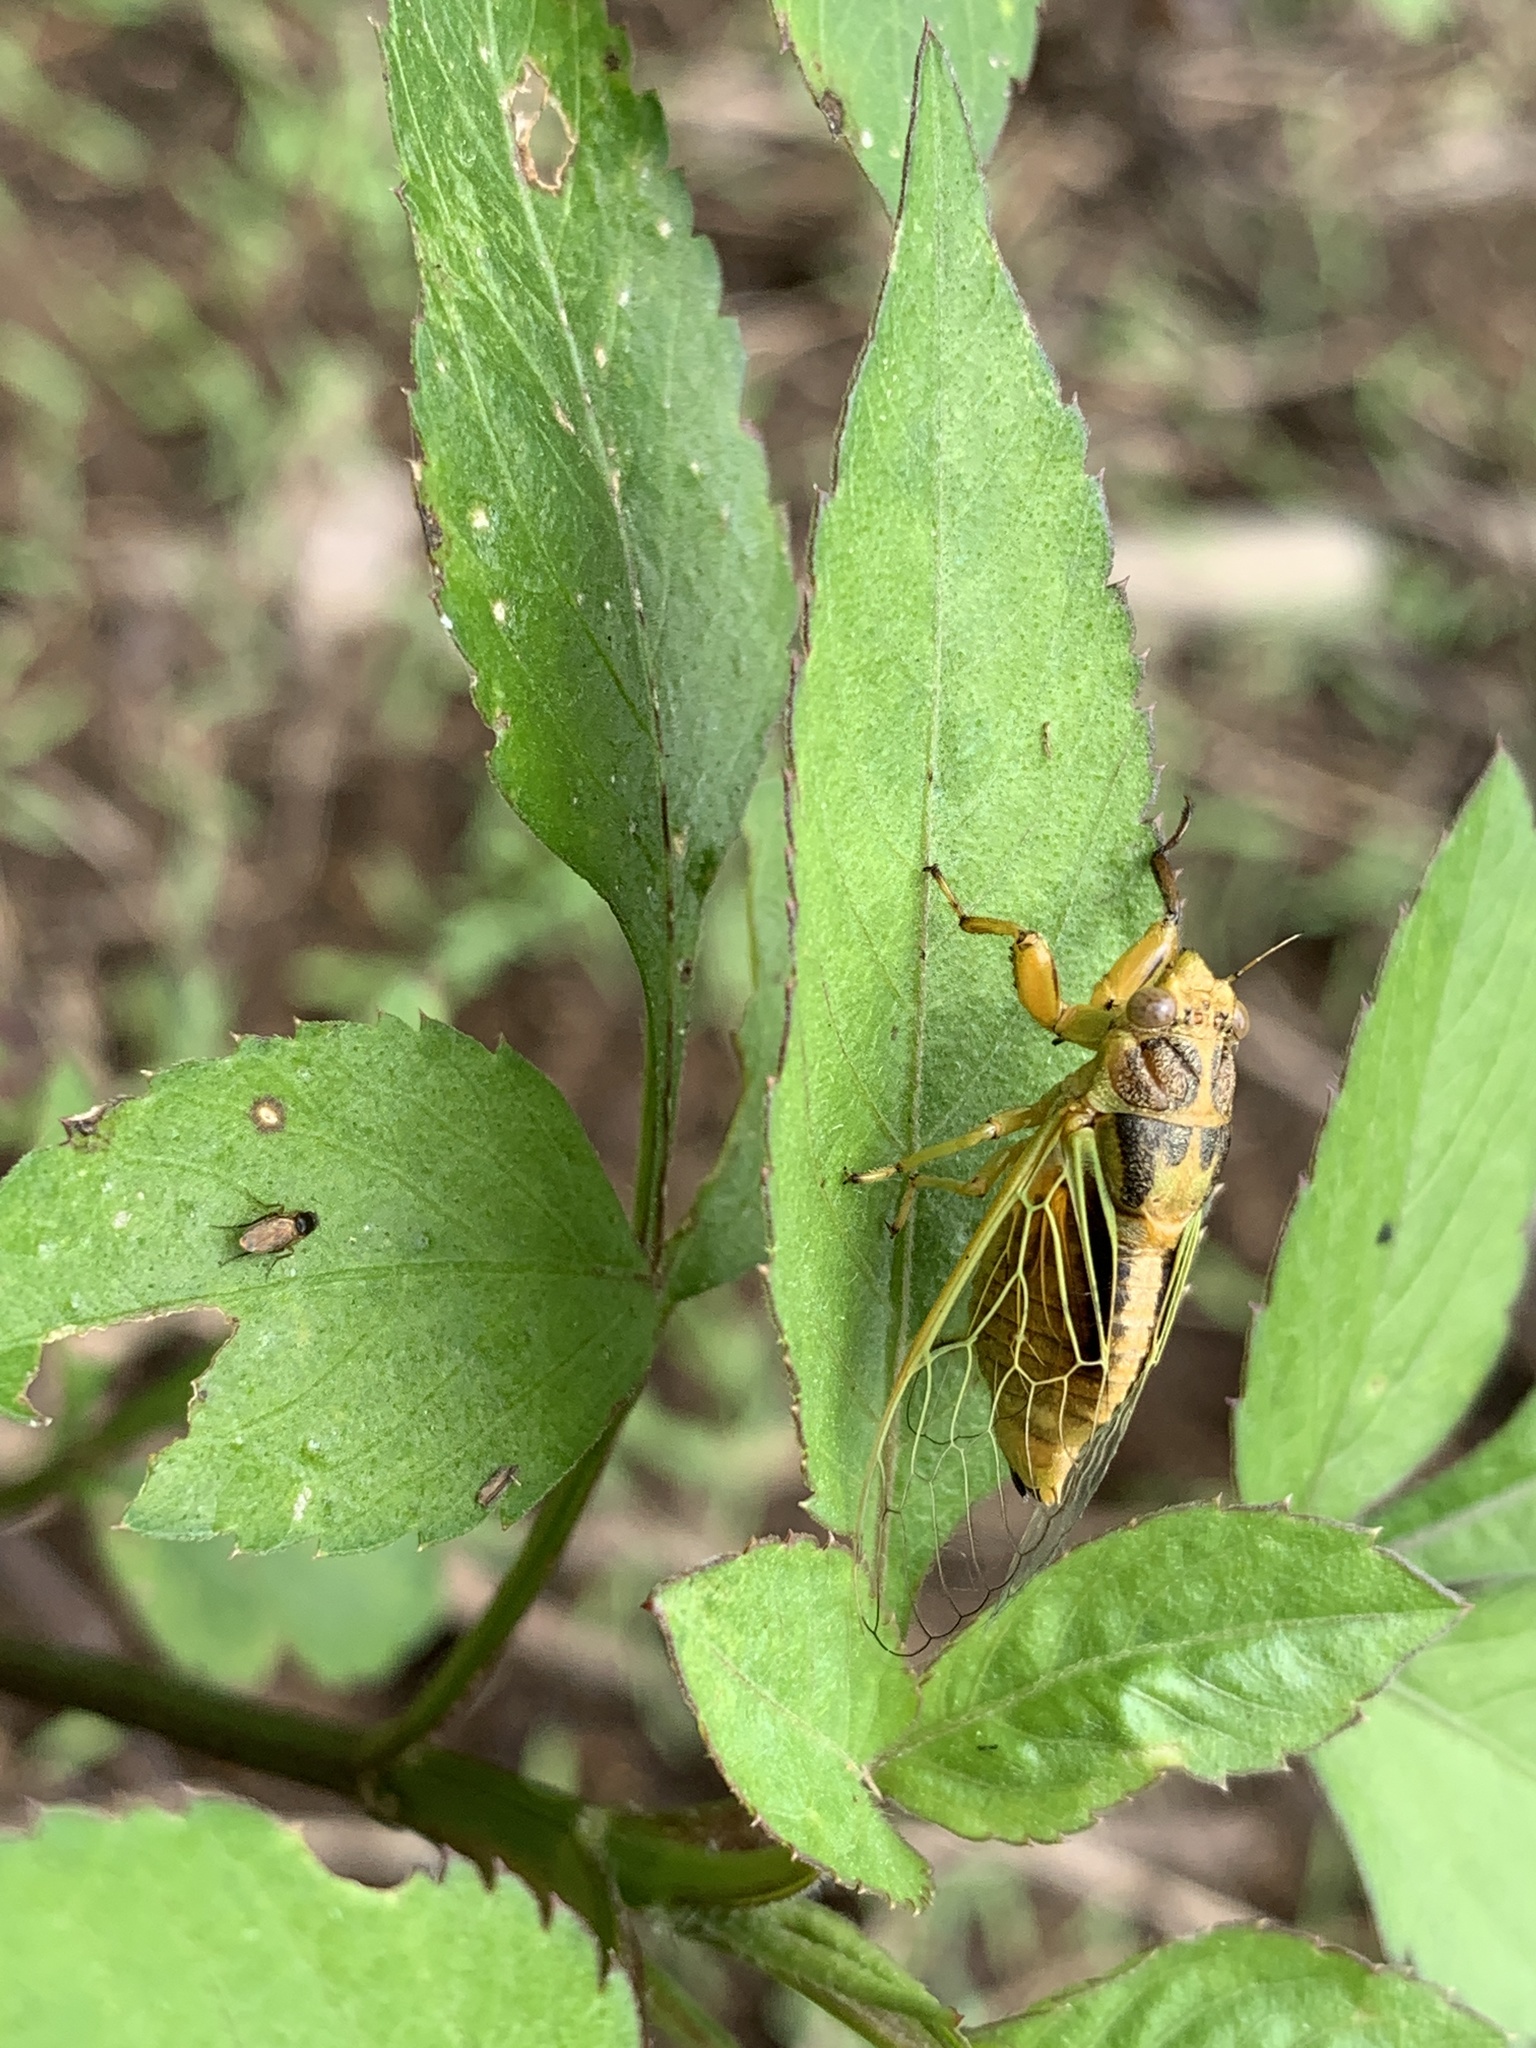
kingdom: Animalia
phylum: Arthropoda
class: Insecta
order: Hemiptera
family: Cicadidae
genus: Mogannia
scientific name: Mogannia hebes
